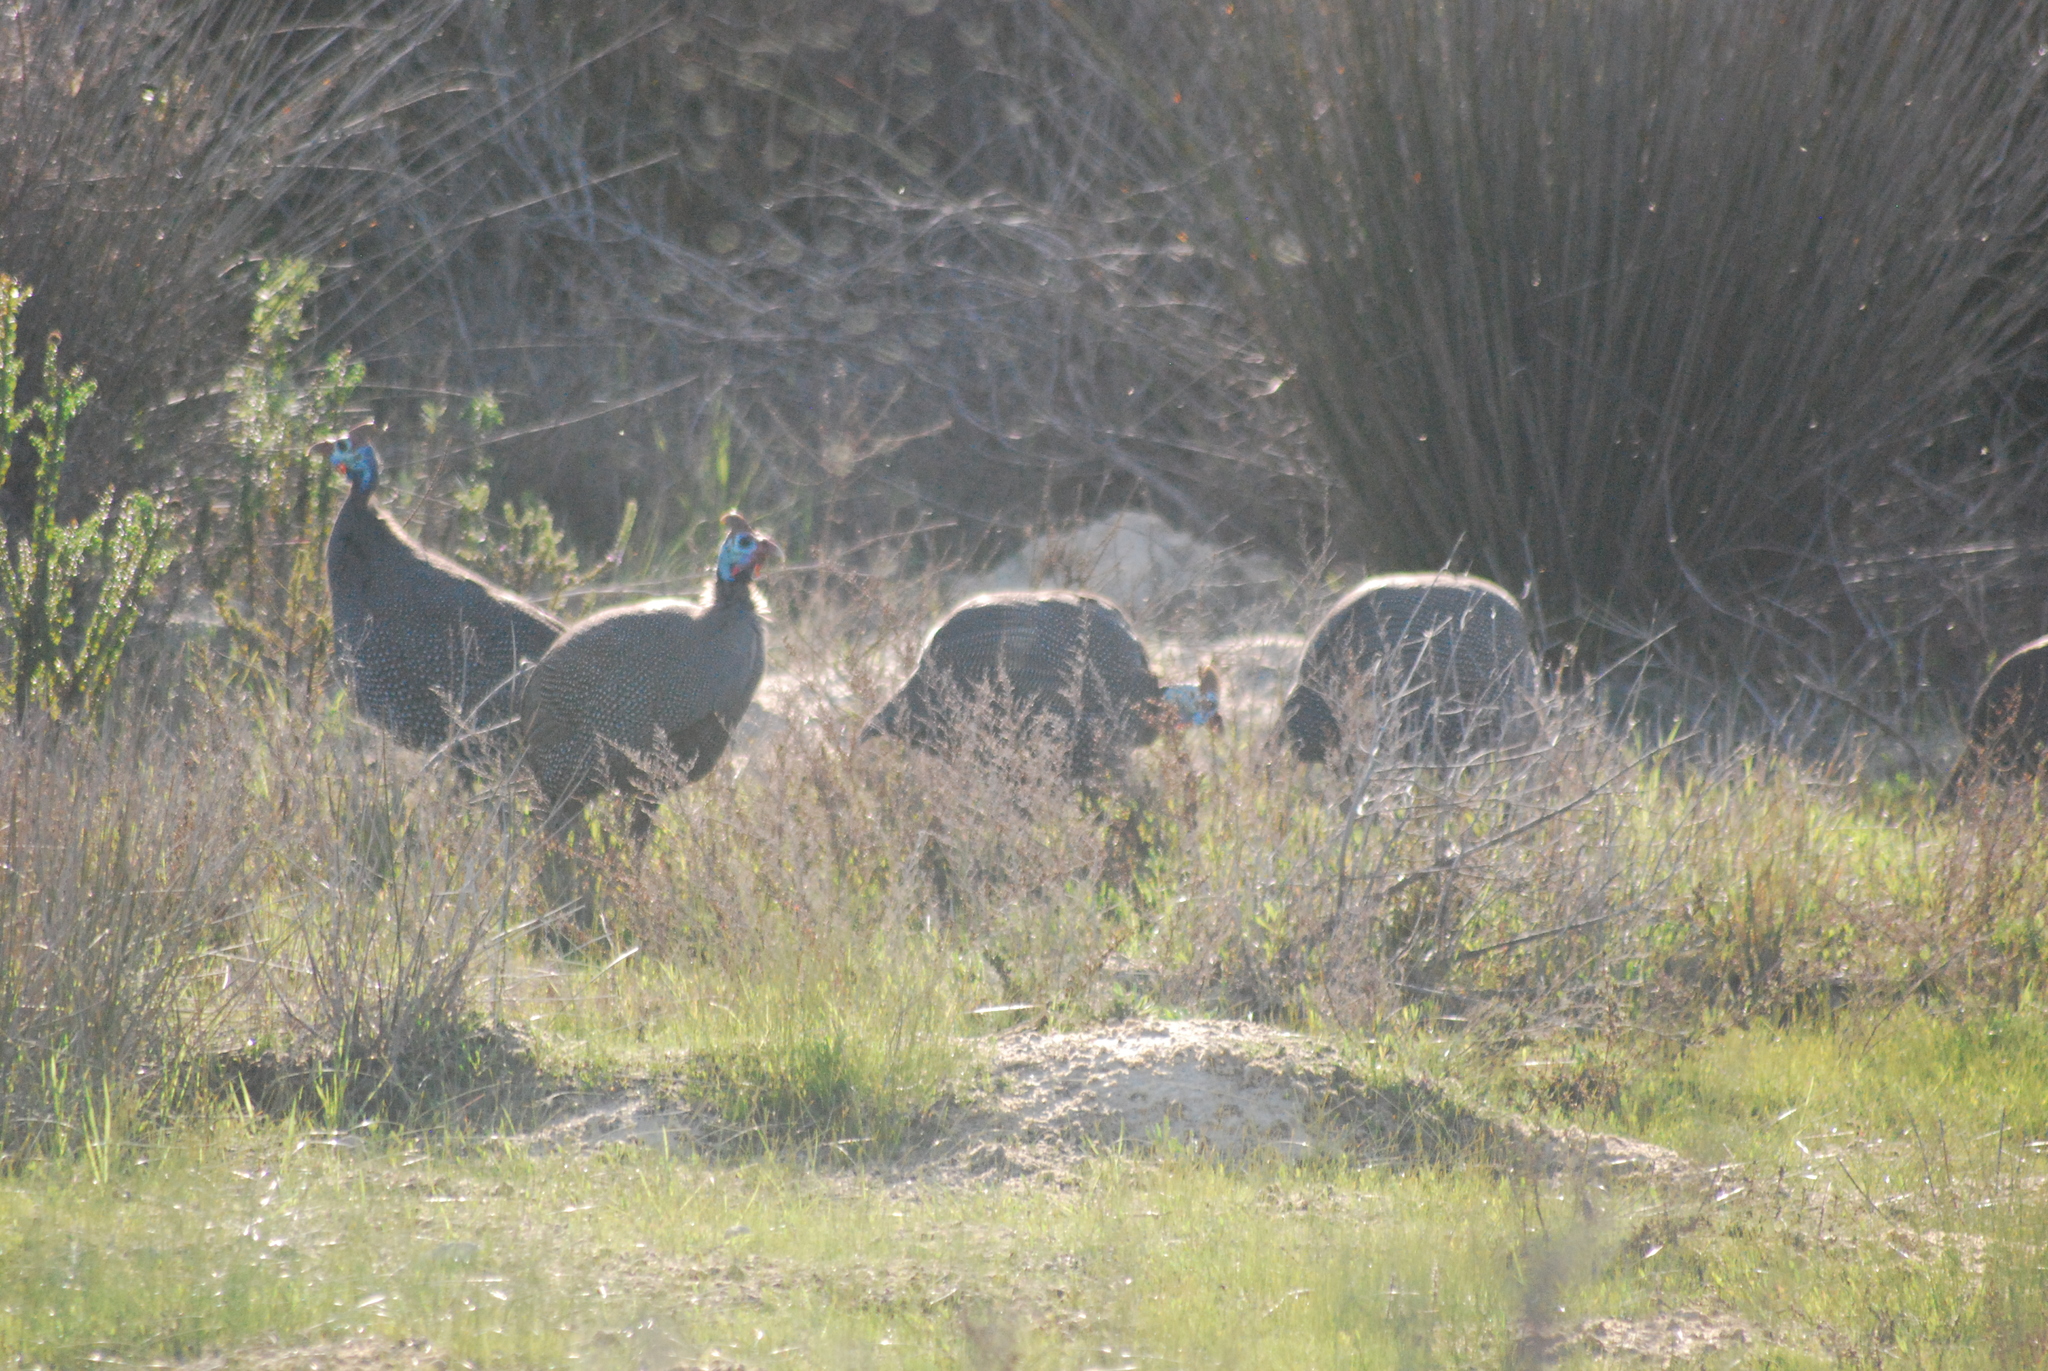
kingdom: Animalia
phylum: Chordata
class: Aves
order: Galliformes
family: Numididae
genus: Numida
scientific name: Numida meleagris
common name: Helmeted guineafowl
